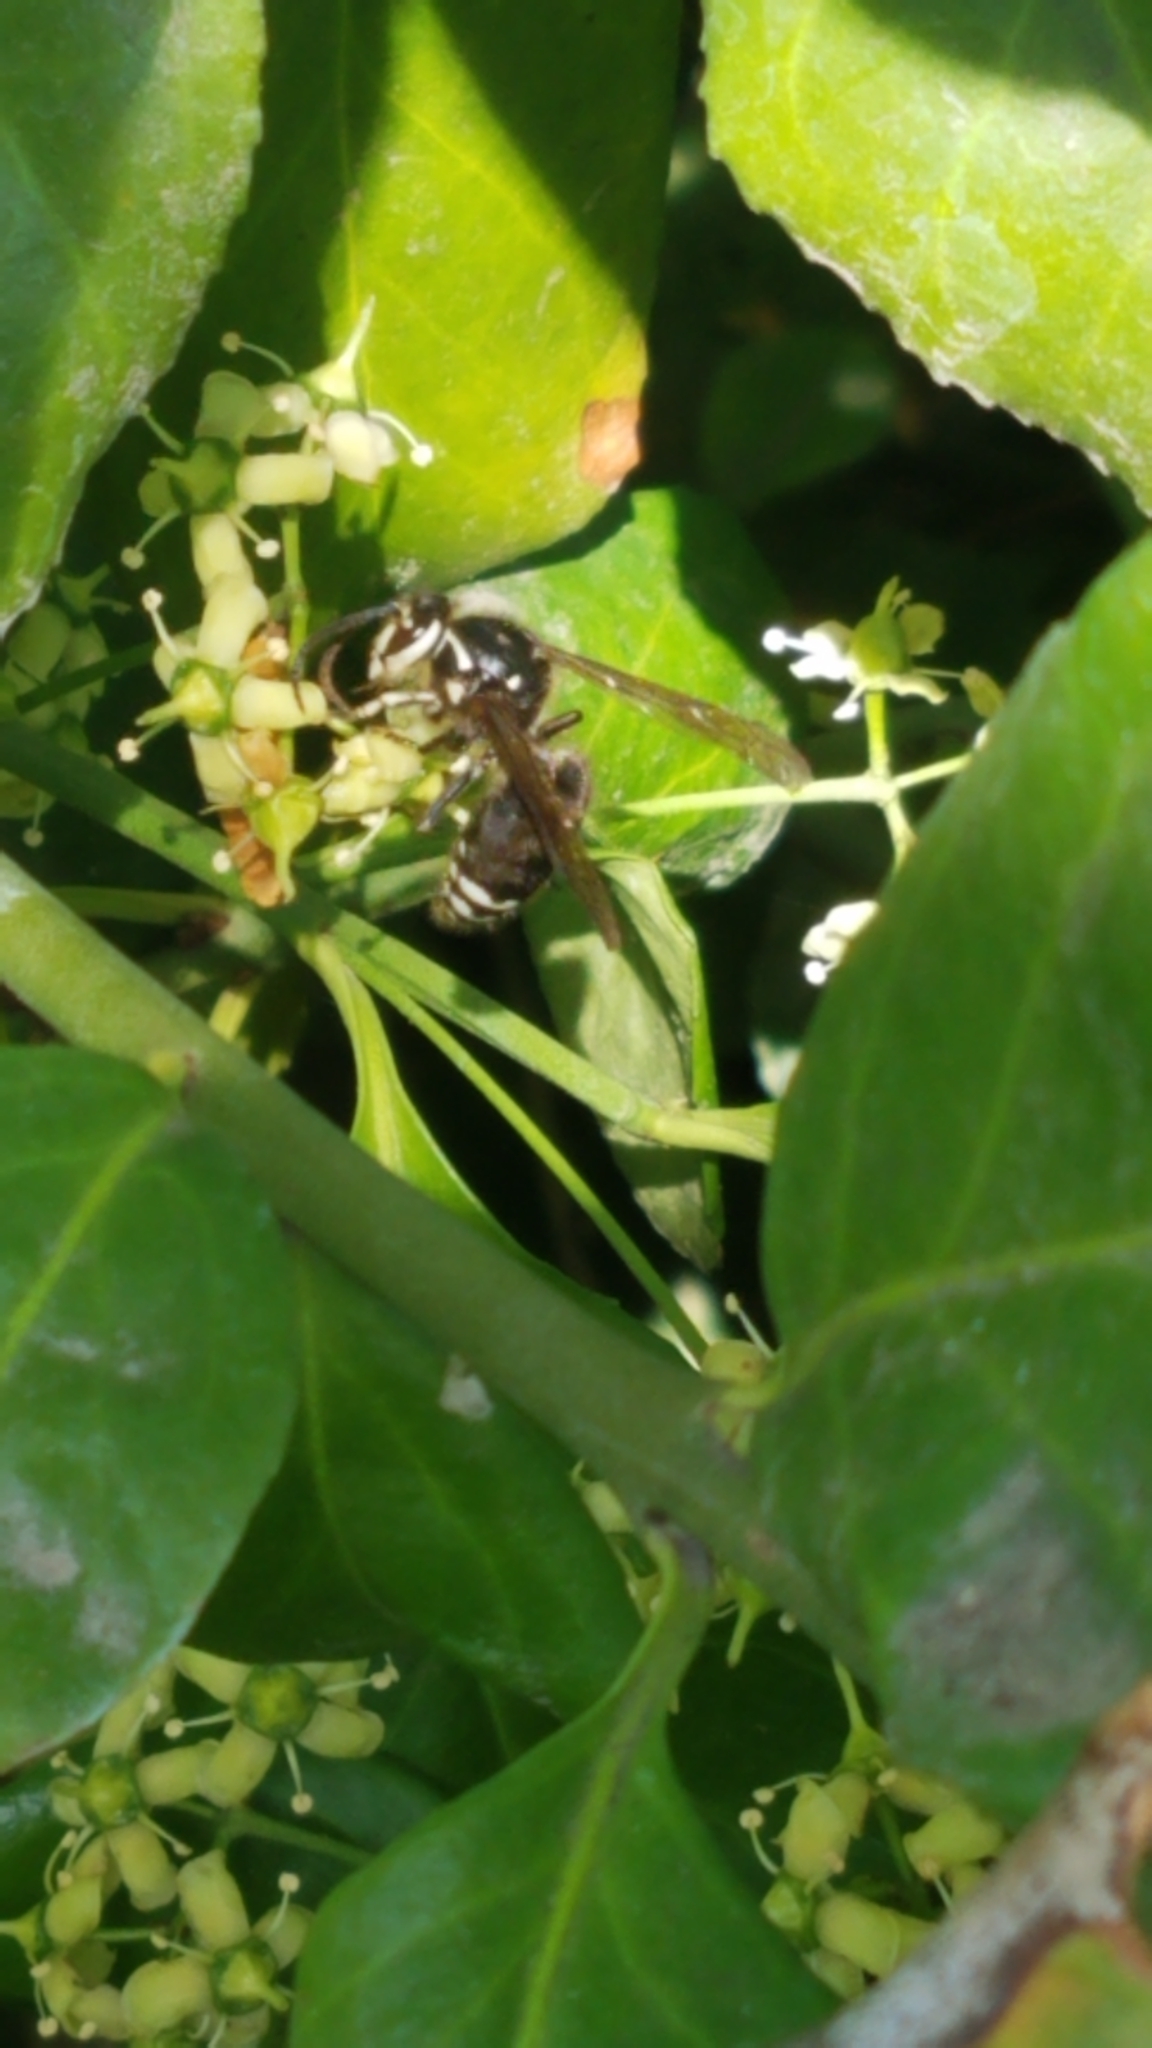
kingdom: Animalia
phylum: Arthropoda
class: Insecta
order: Hymenoptera
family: Vespidae
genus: Dolichovespula
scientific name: Dolichovespula maculata
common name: Bald-faced hornet
